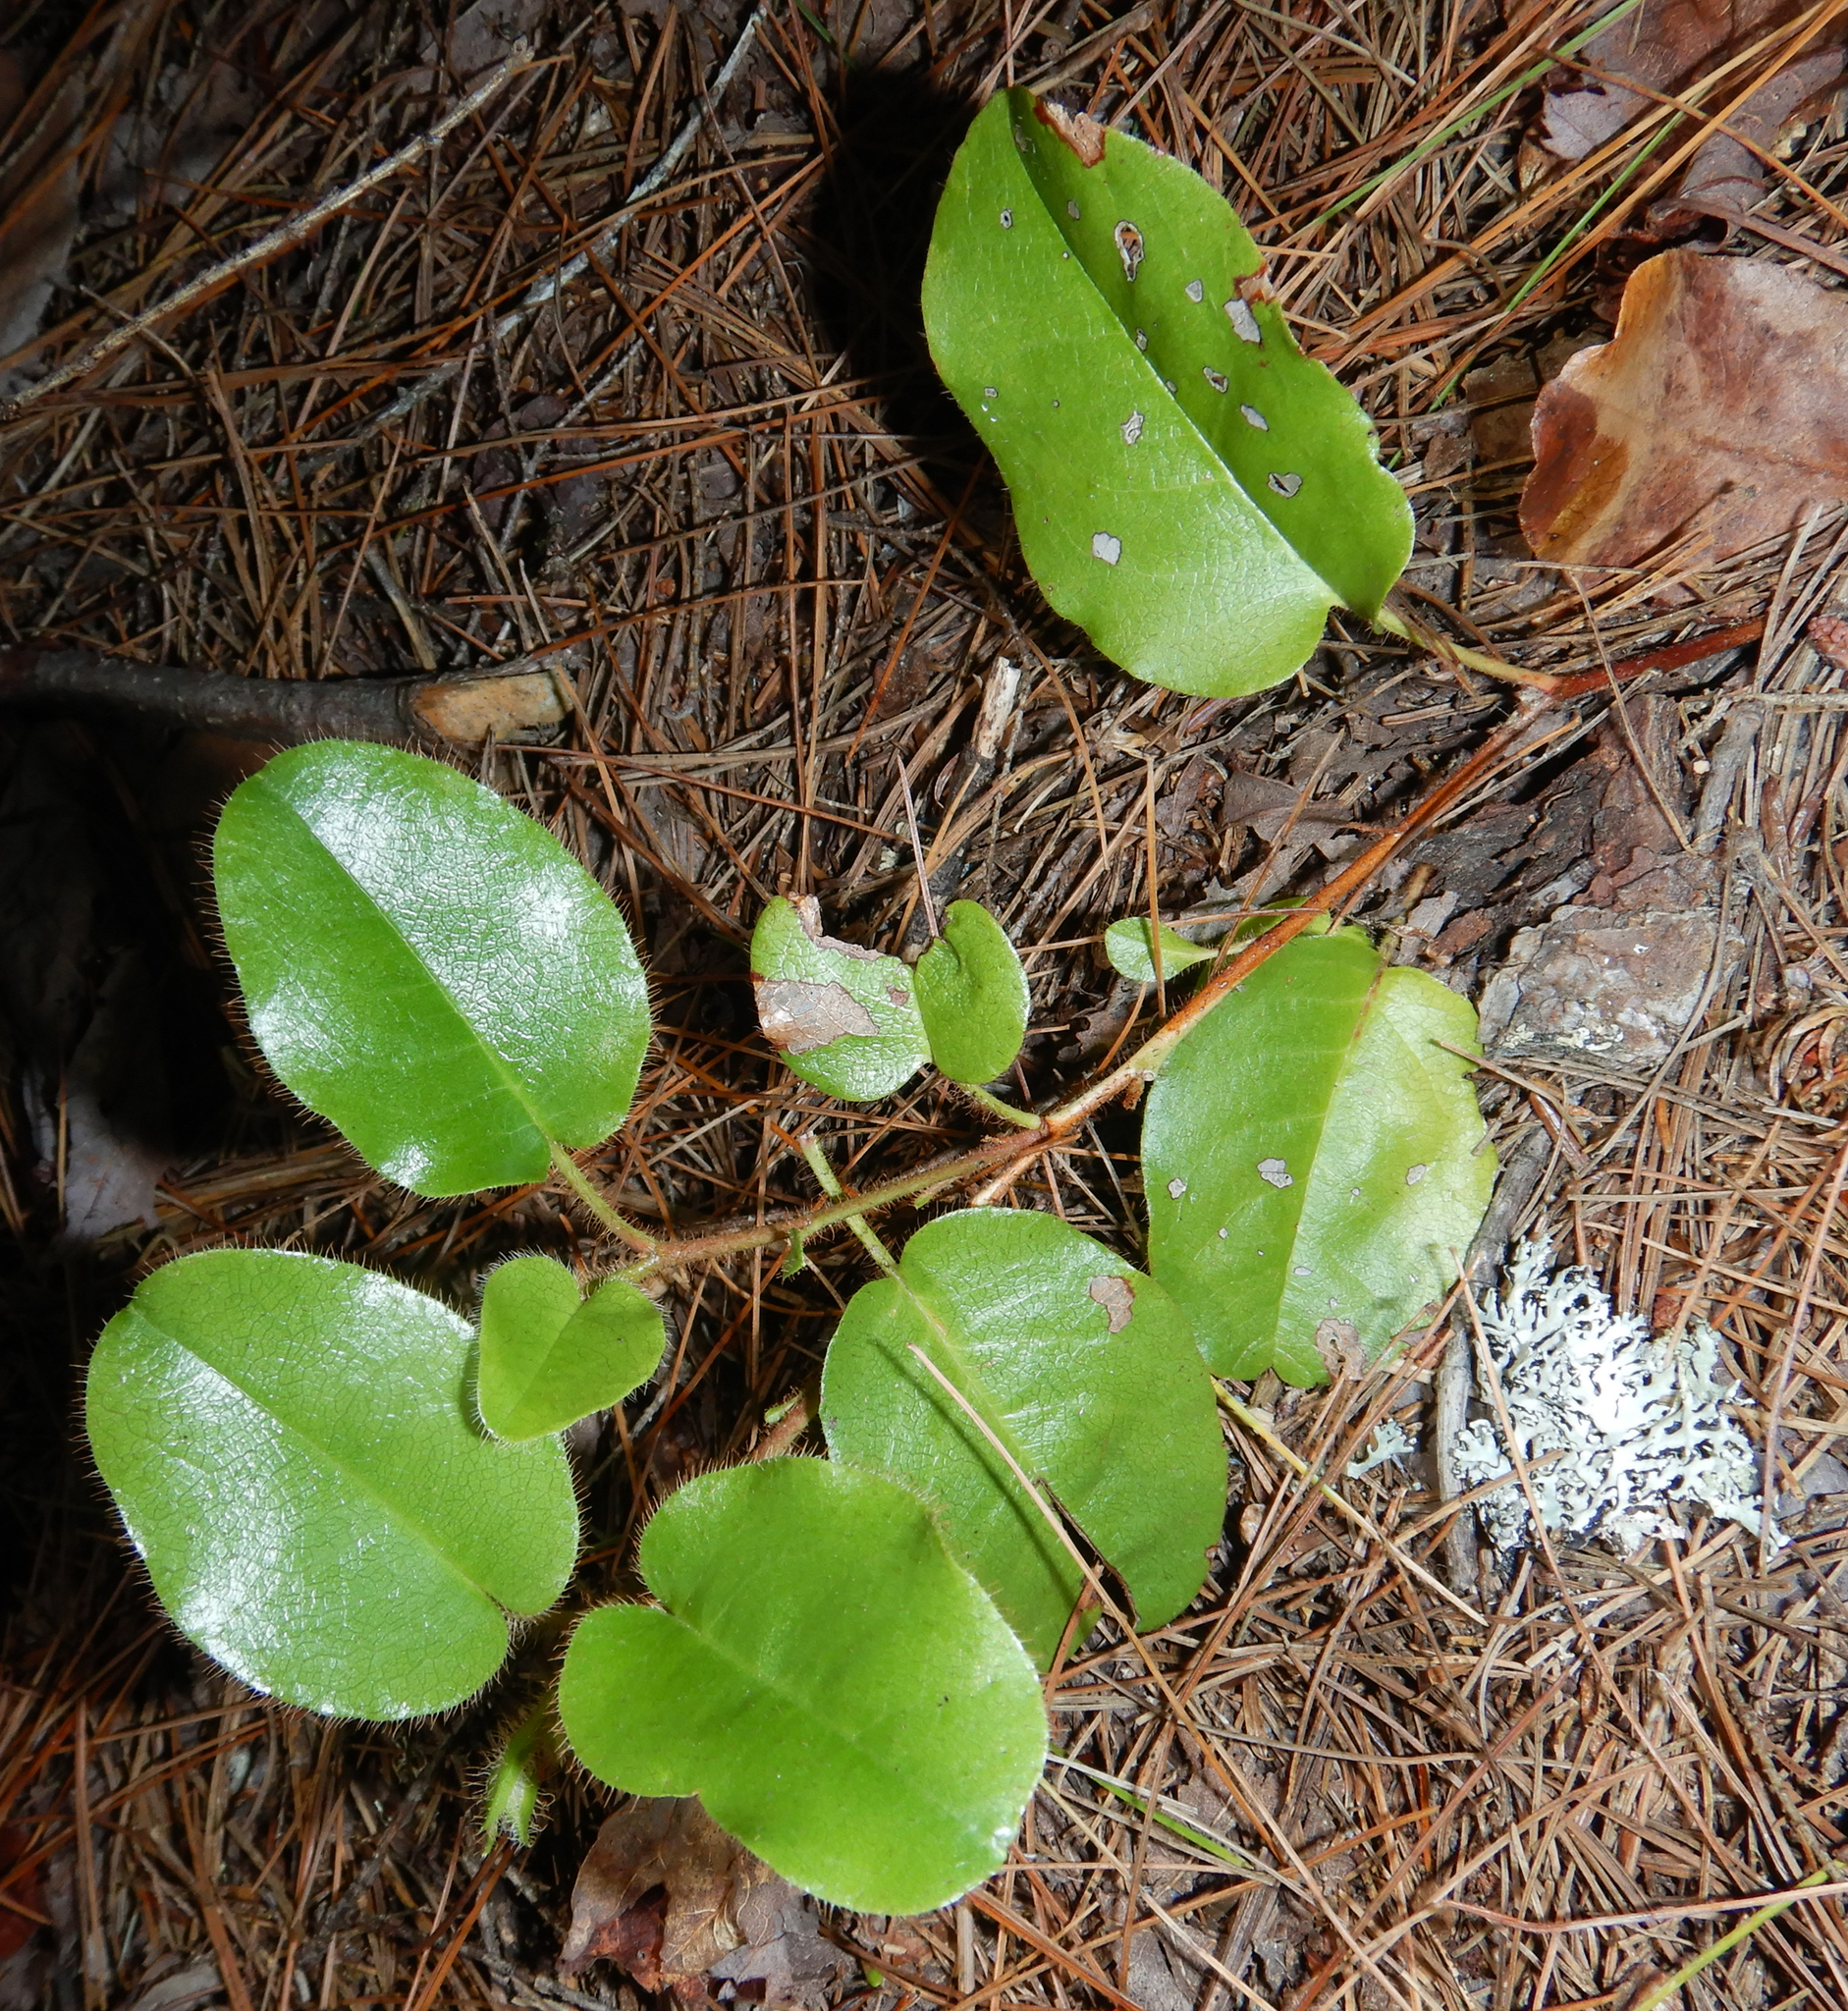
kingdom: Plantae
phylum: Tracheophyta
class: Magnoliopsida
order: Ericales
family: Ericaceae
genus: Epigaea
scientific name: Epigaea repens
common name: Gravelroot
